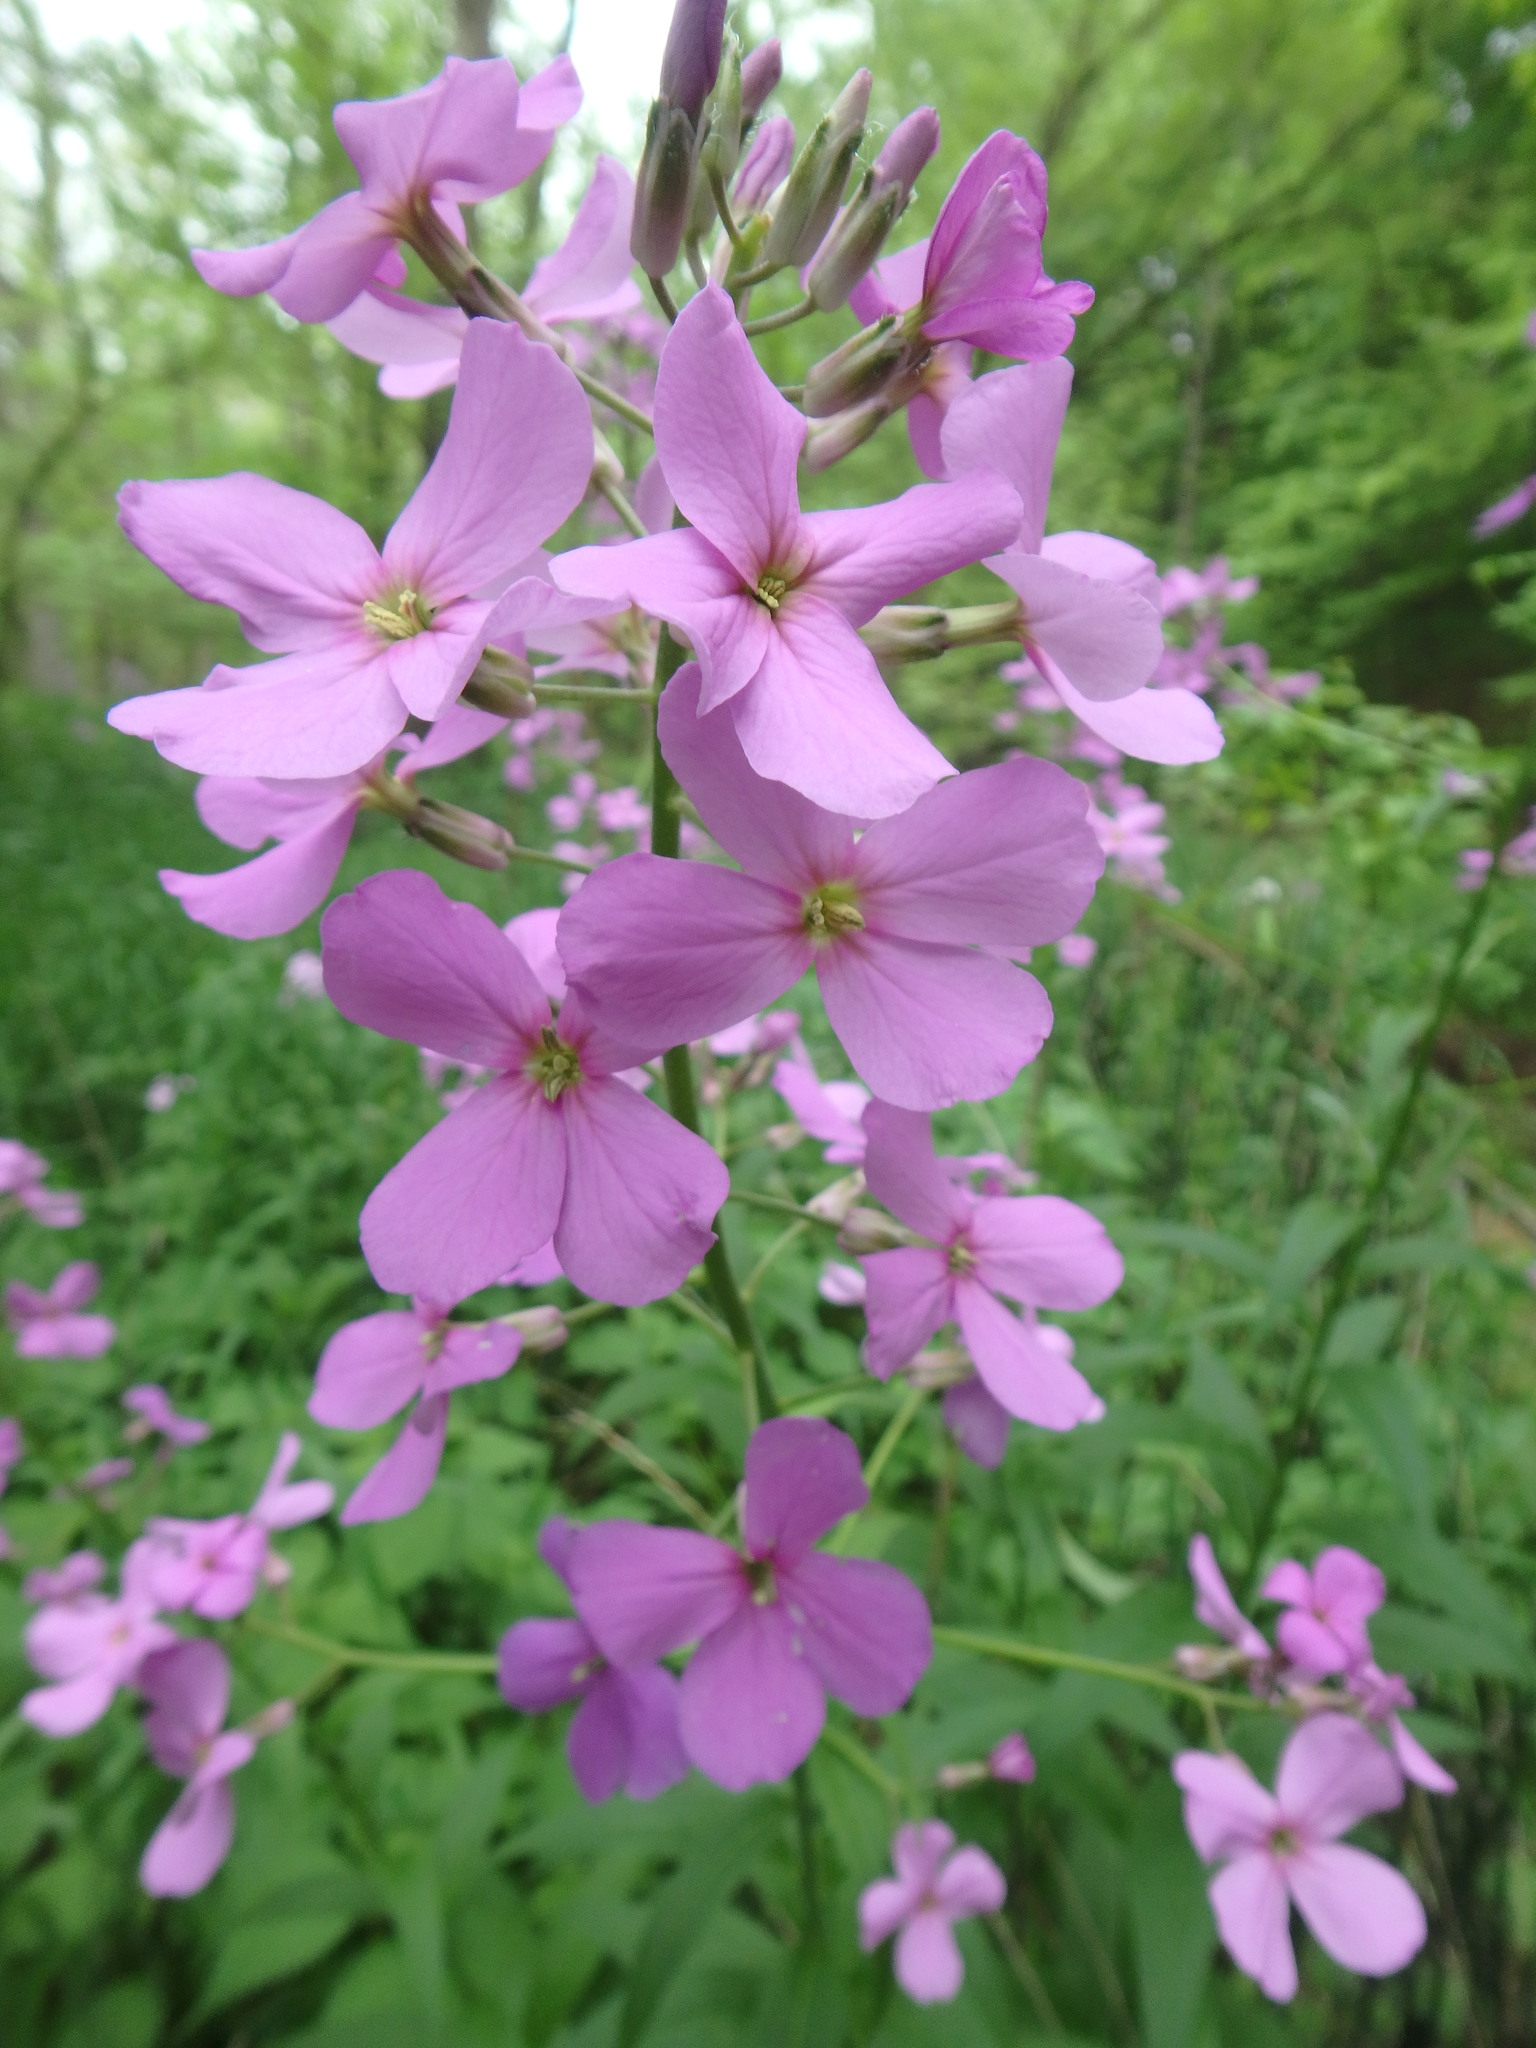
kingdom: Plantae
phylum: Tracheophyta
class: Magnoliopsida
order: Brassicales
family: Brassicaceae
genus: Hesperis
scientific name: Hesperis matronalis
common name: Dame's-violet
